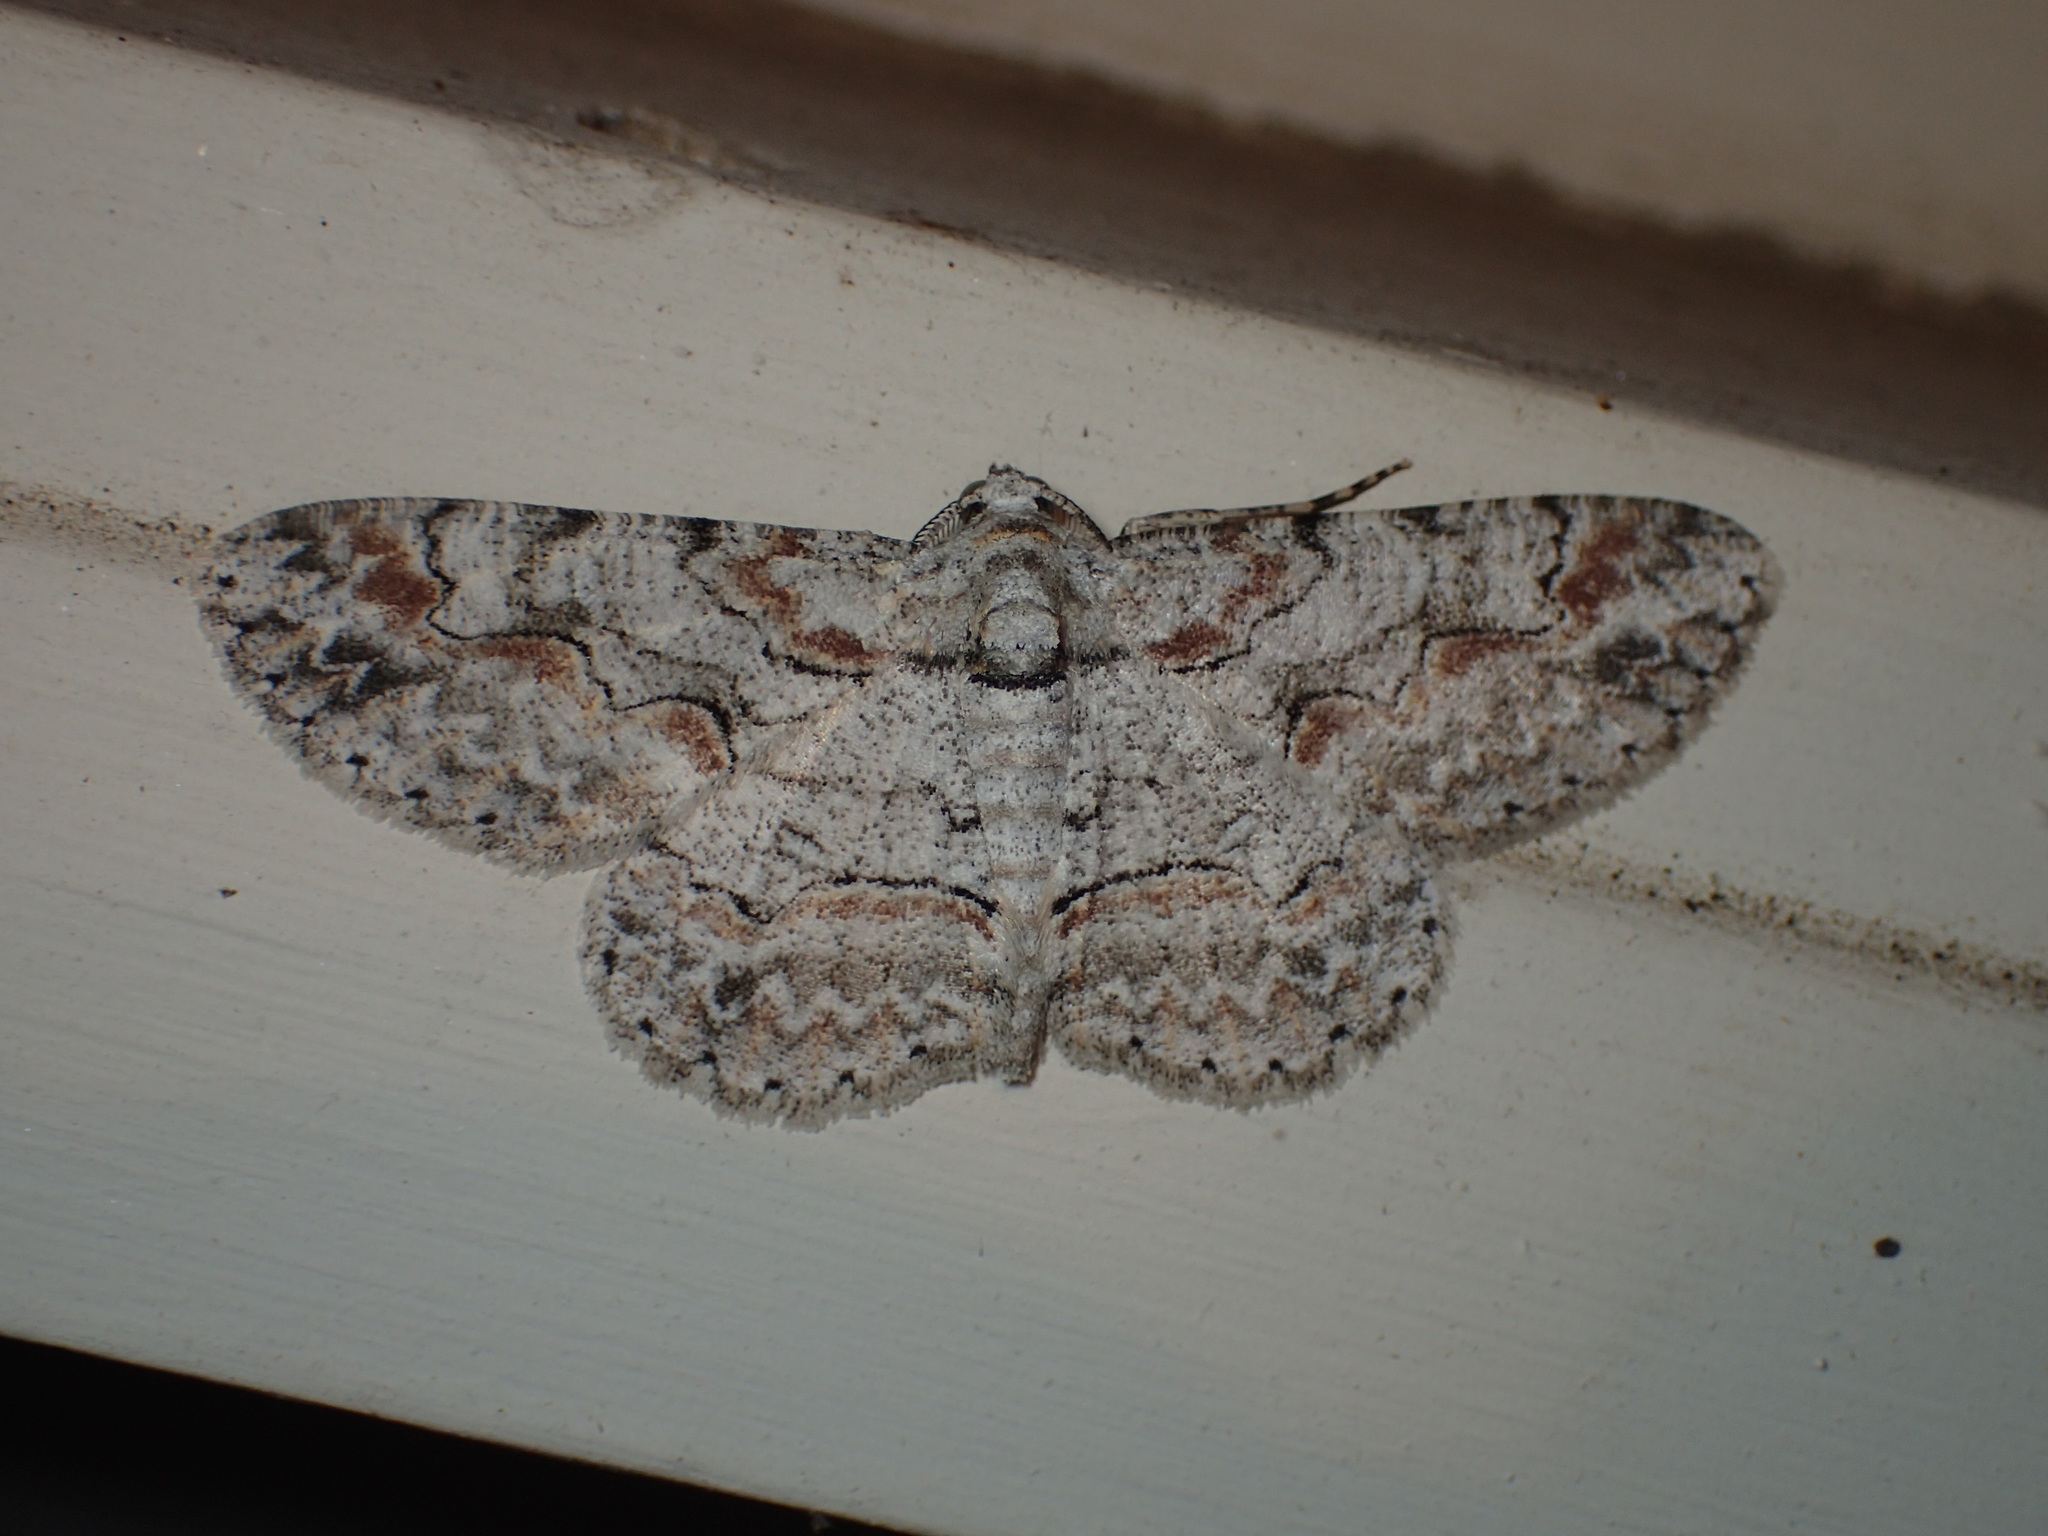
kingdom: Animalia
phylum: Arthropoda
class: Insecta
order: Lepidoptera
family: Geometridae
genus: Iridopsis
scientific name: Iridopsis defectaria
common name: Brown-shaded gray
